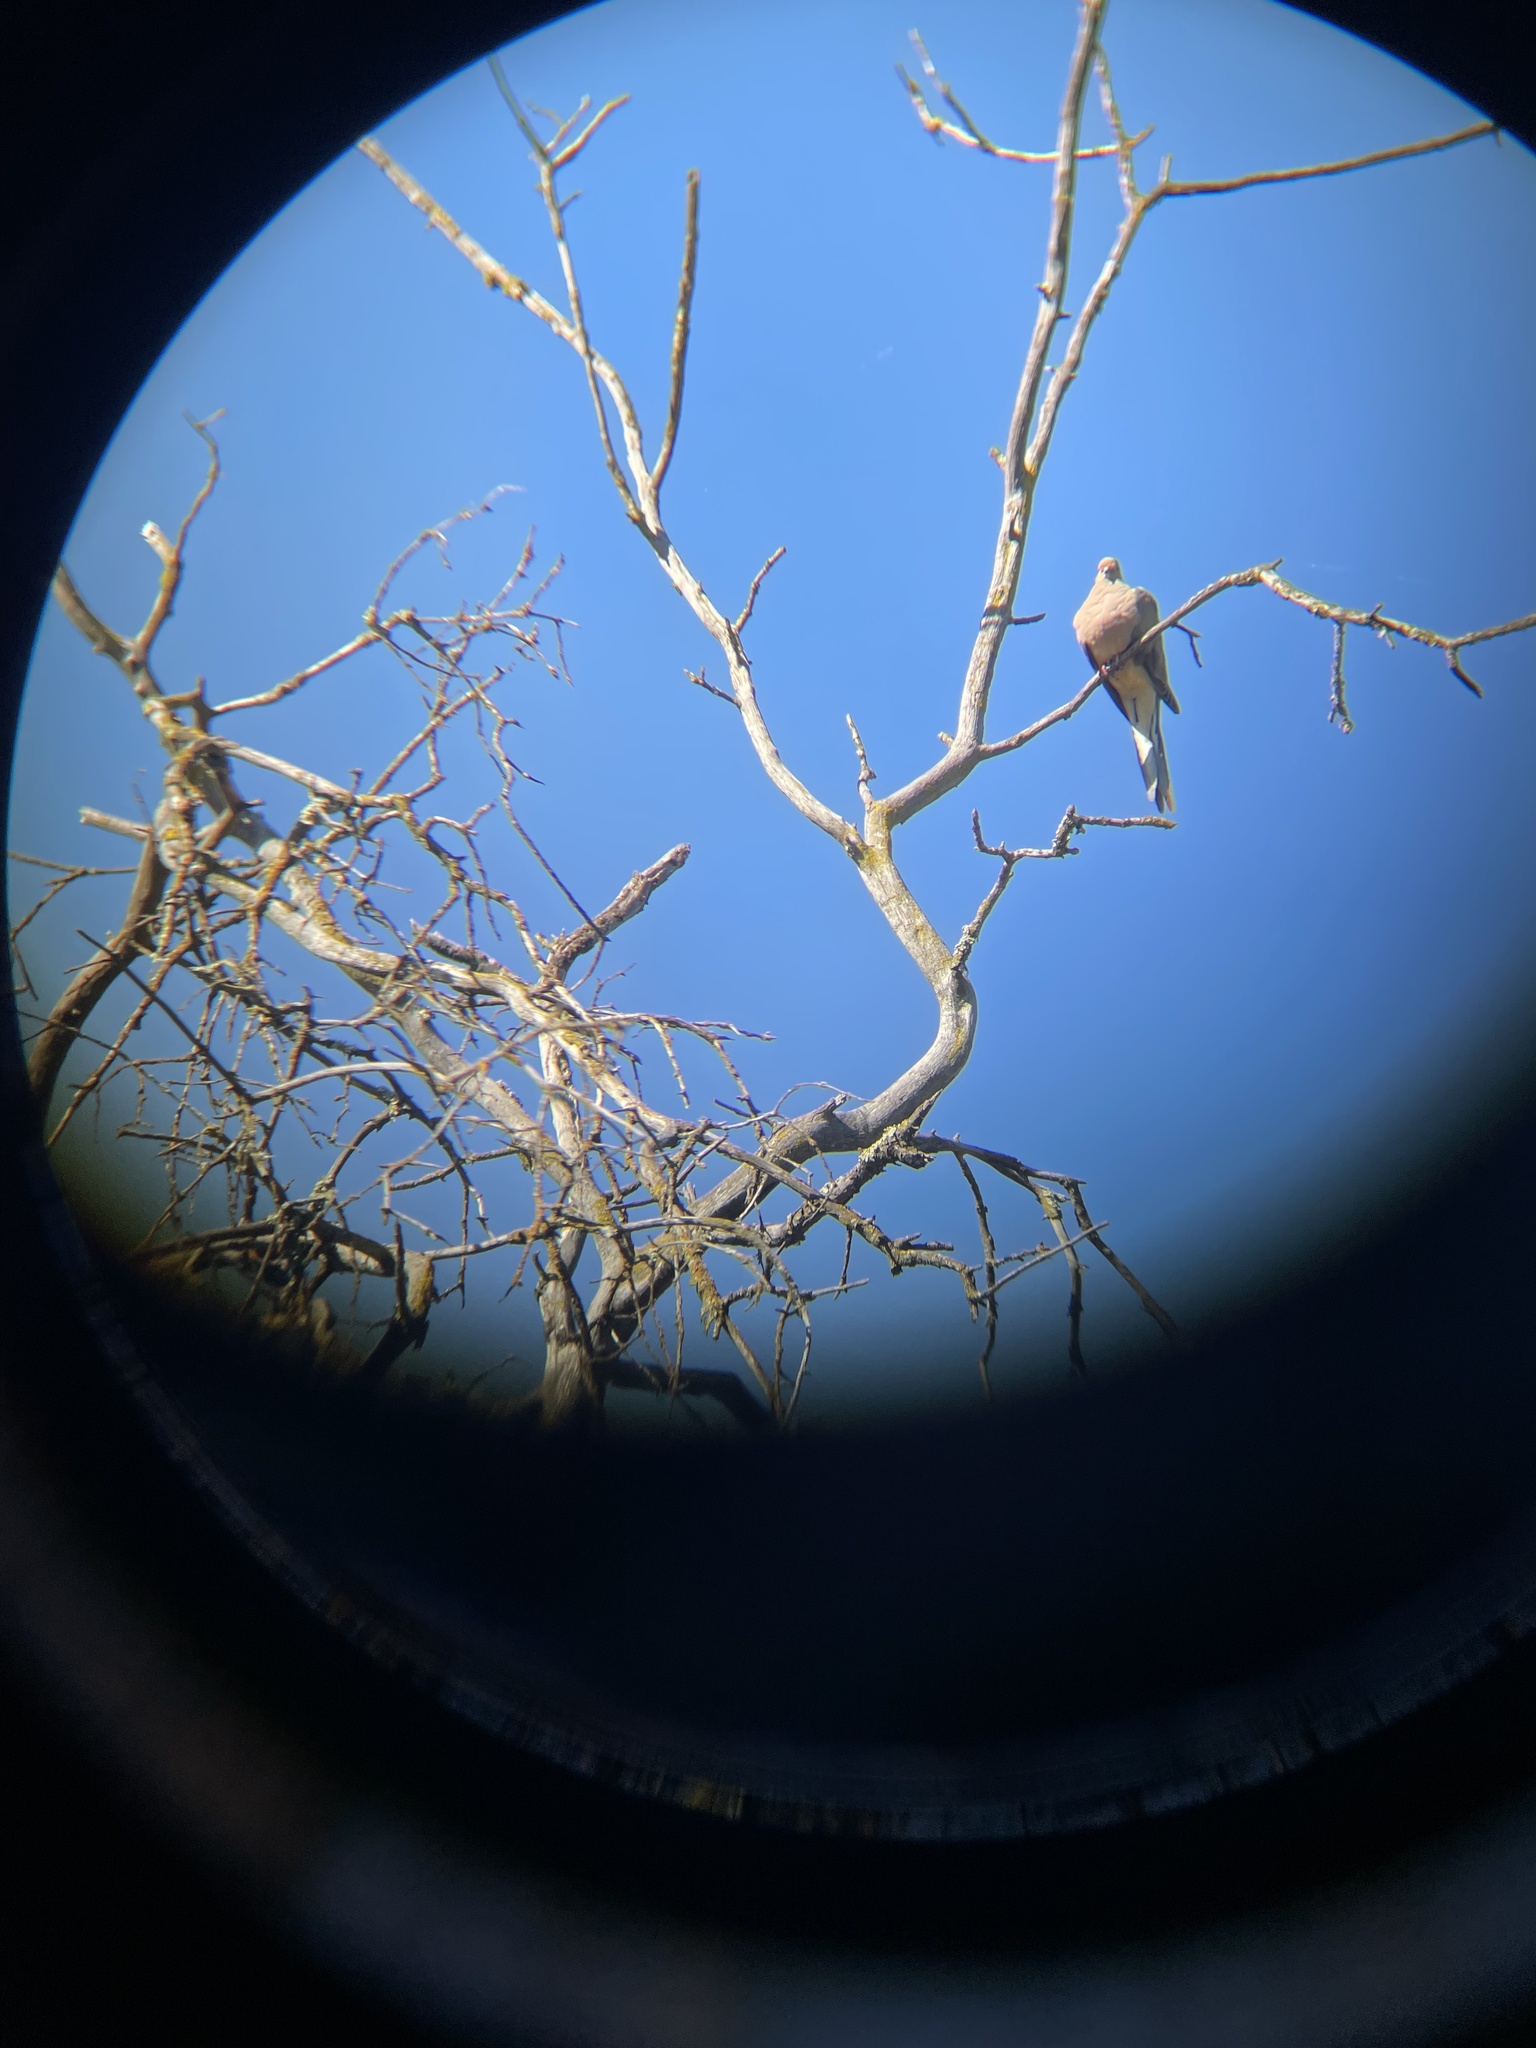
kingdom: Animalia
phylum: Chordata
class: Aves
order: Columbiformes
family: Columbidae
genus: Zenaida
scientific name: Zenaida macroura
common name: Mourning dove
